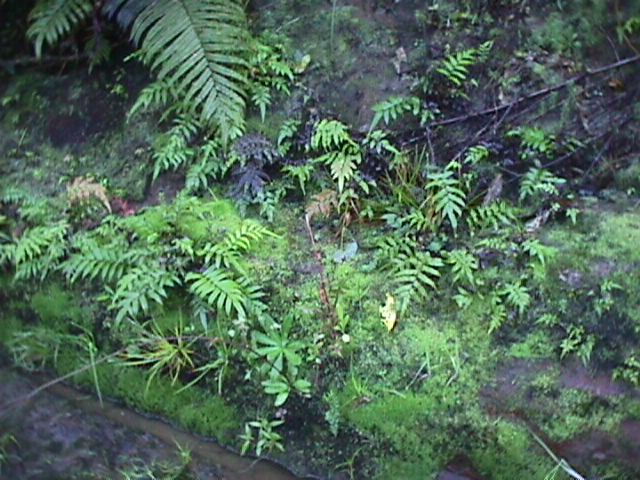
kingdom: Plantae
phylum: Tracheophyta
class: Polypodiopsida
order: Polypodiales
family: Blechnaceae
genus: Parablechnum
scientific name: Parablechnum novae-zelandiae
